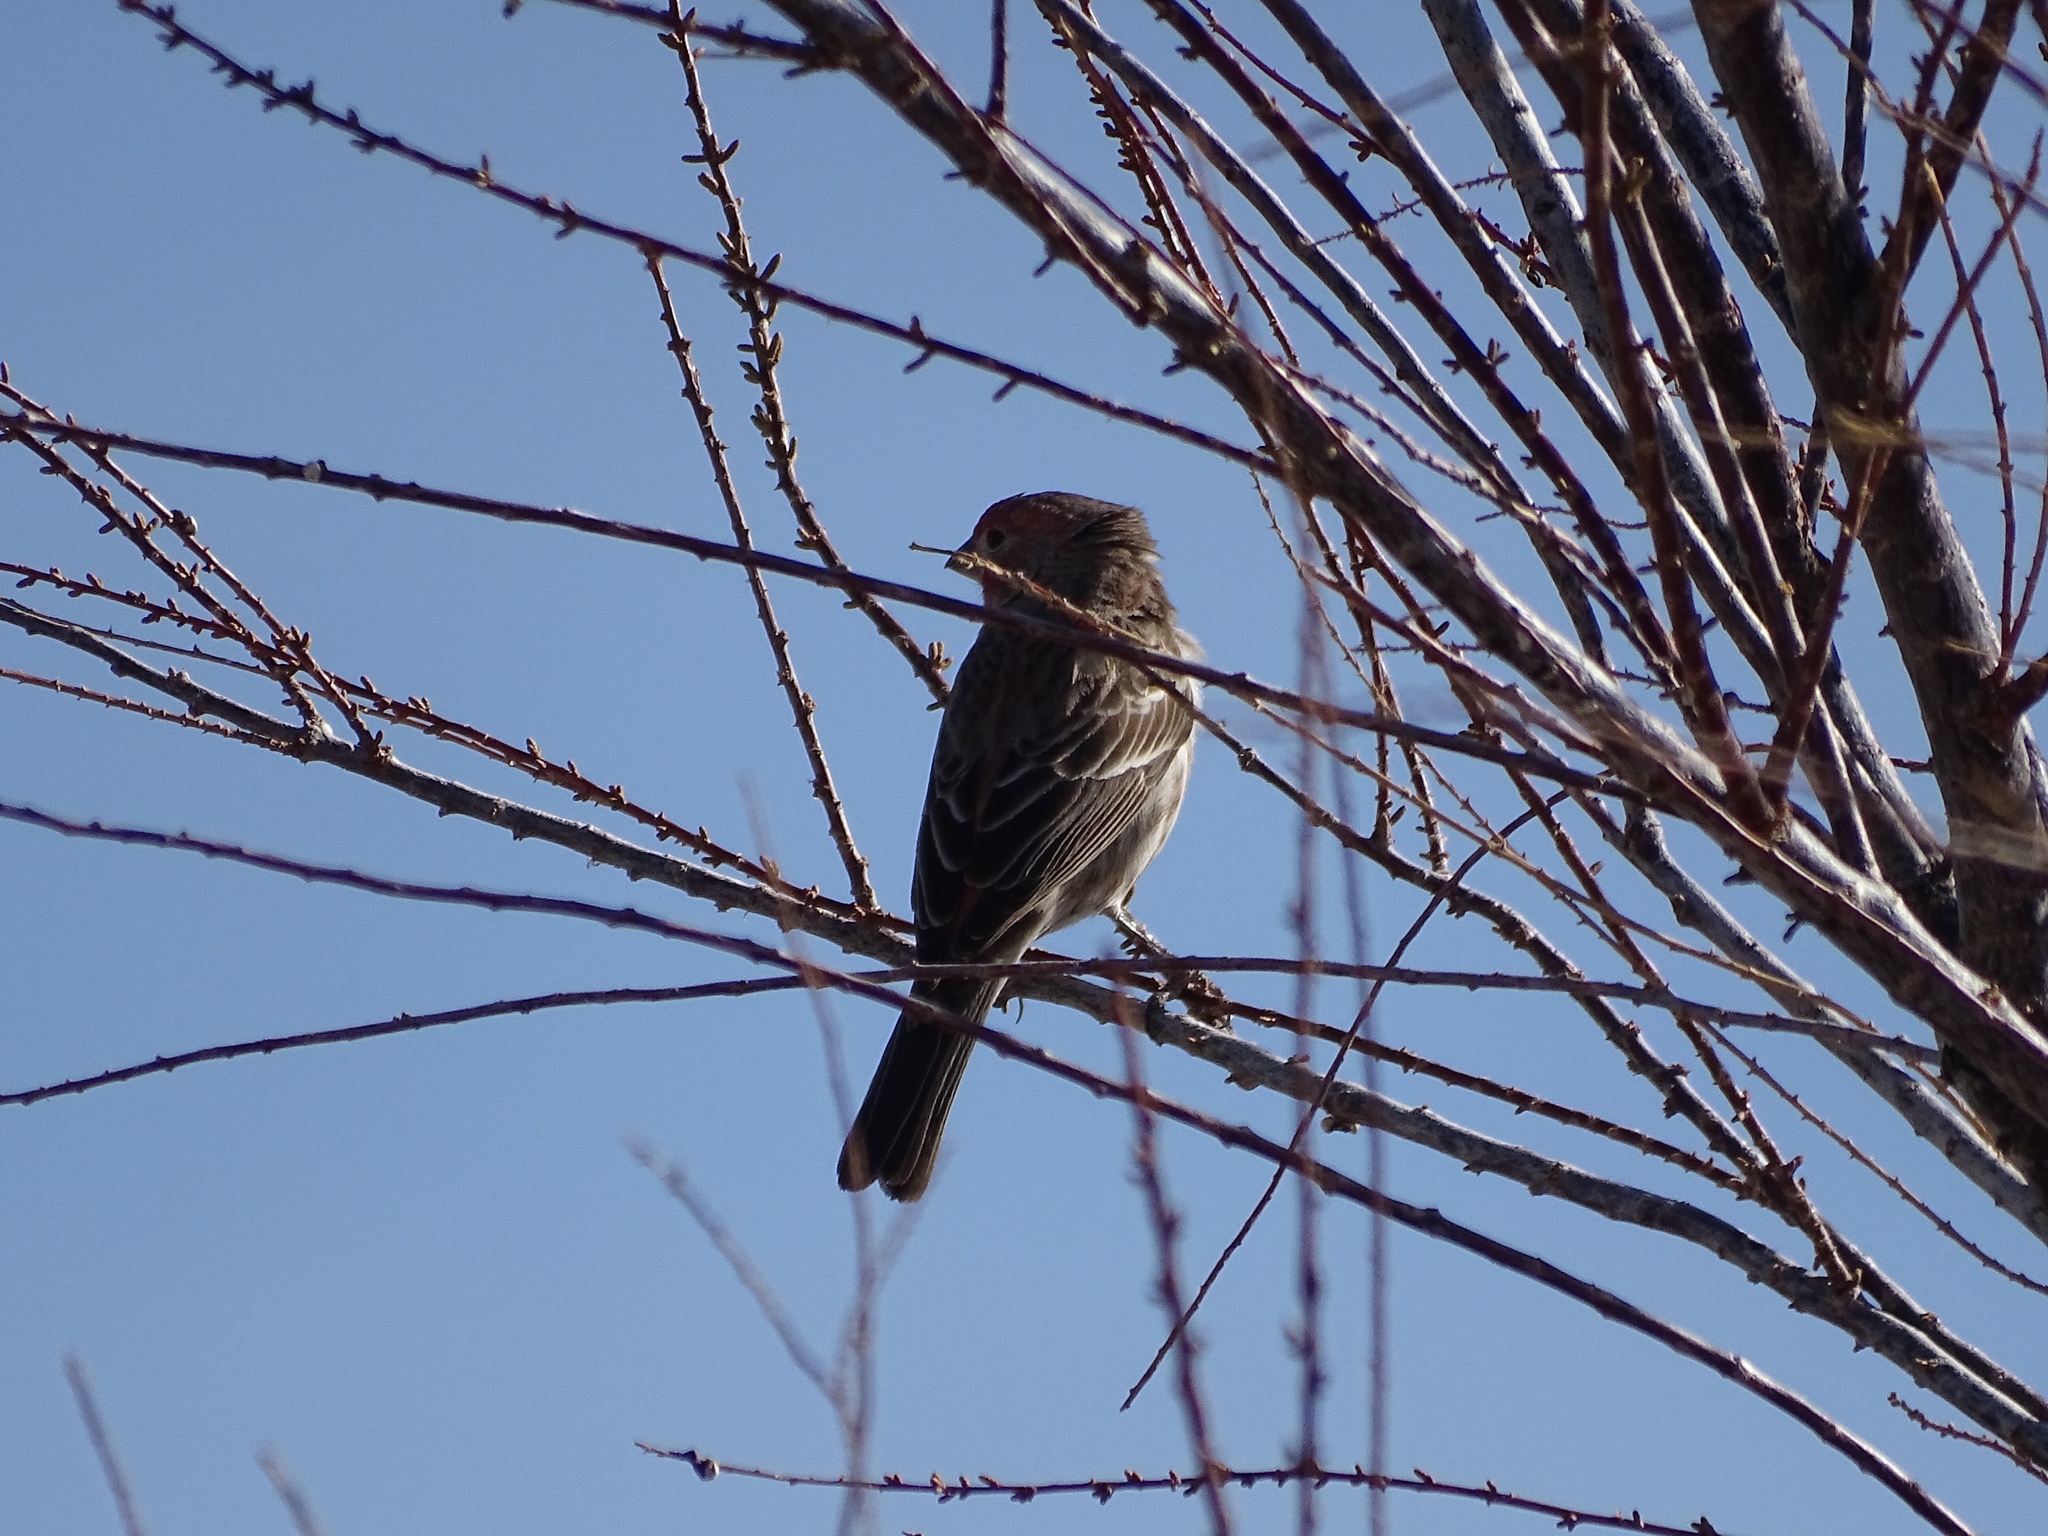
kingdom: Animalia
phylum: Chordata
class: Aves
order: Passeriformes
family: Fringillidae
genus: Haemorhous
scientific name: Haemorhous mexicanus
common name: House finch
